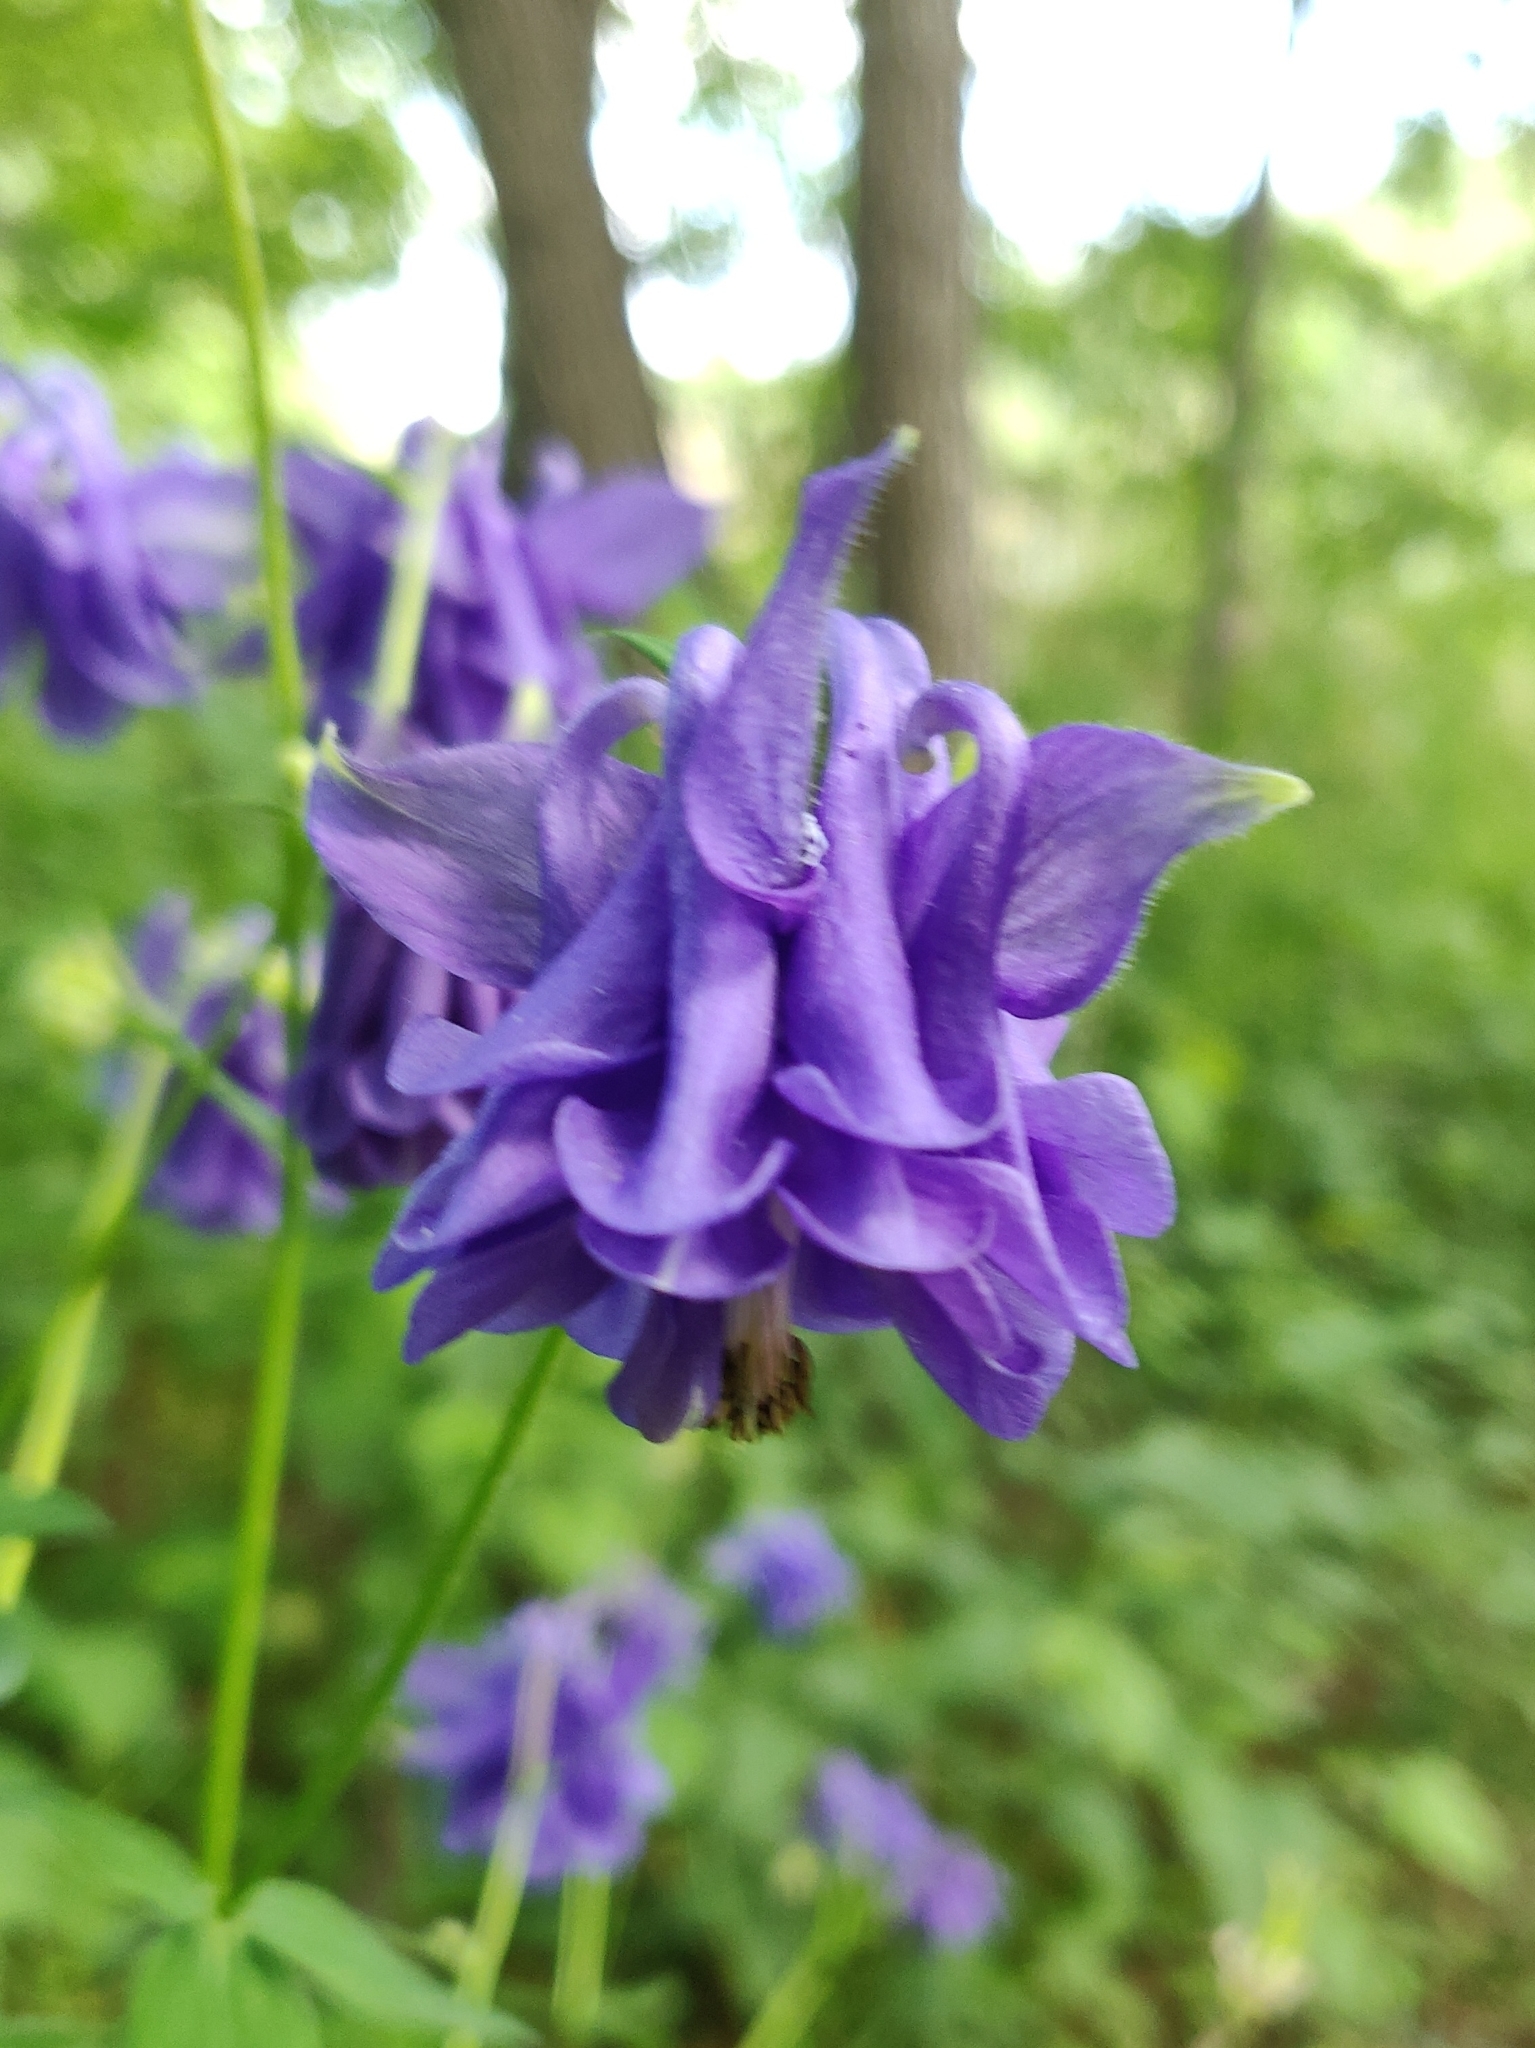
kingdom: Plantae
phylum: Tracheophyta
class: Magnoliopsida
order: Ranunculales
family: Ranunculaceae
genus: Aquilegia
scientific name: Aquilegia vulgaris
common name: Columbine
